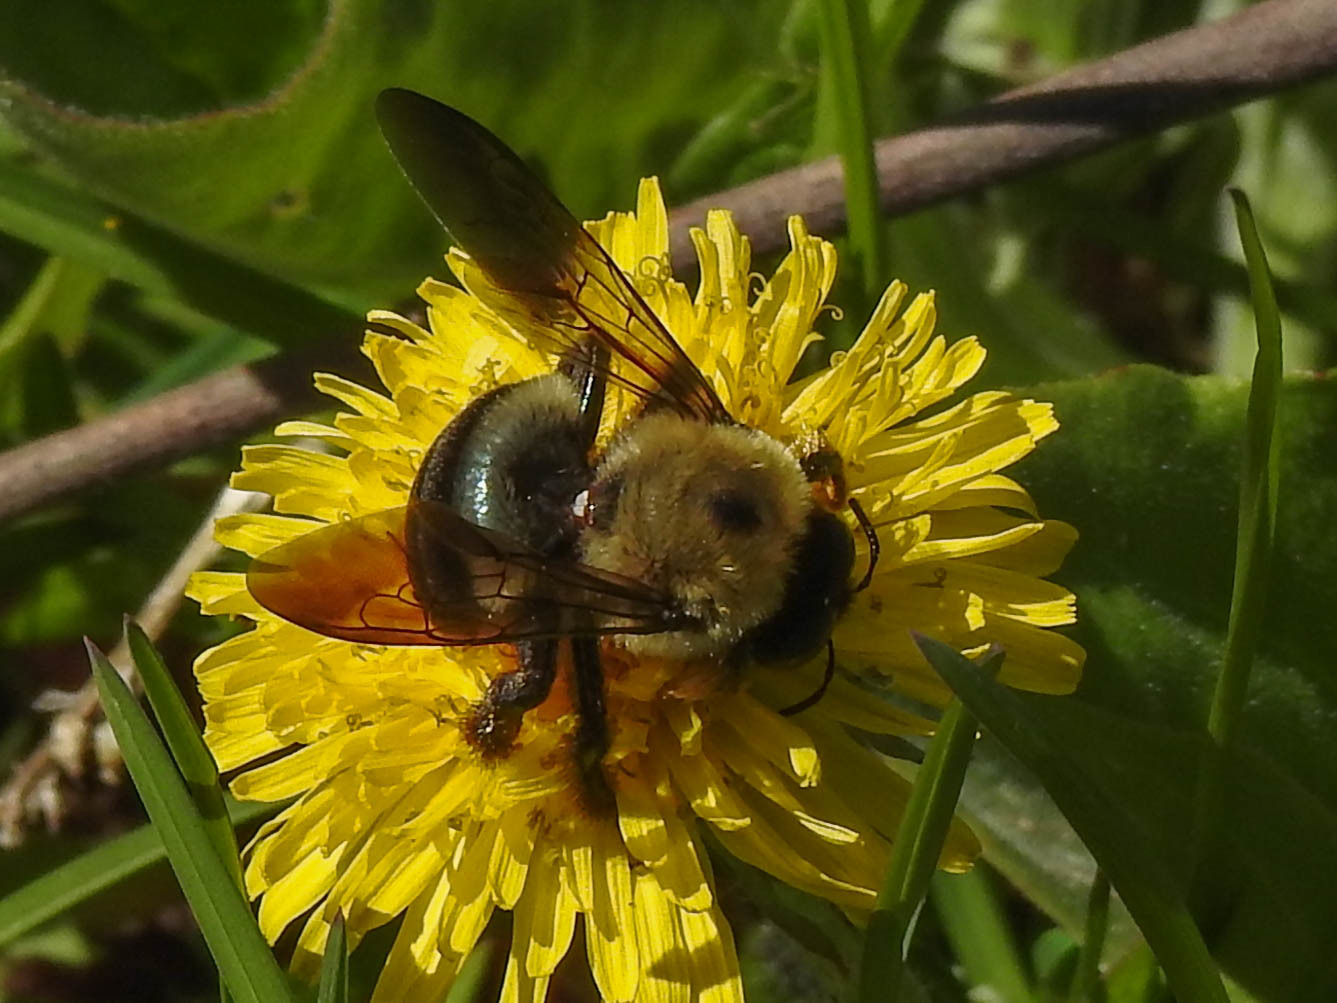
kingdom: Animalia
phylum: Arthropoda
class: Insecta
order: Hymenoptera
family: Apidae
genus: Xylocopa
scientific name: Xylocopa virginica
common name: Carpenter bee
